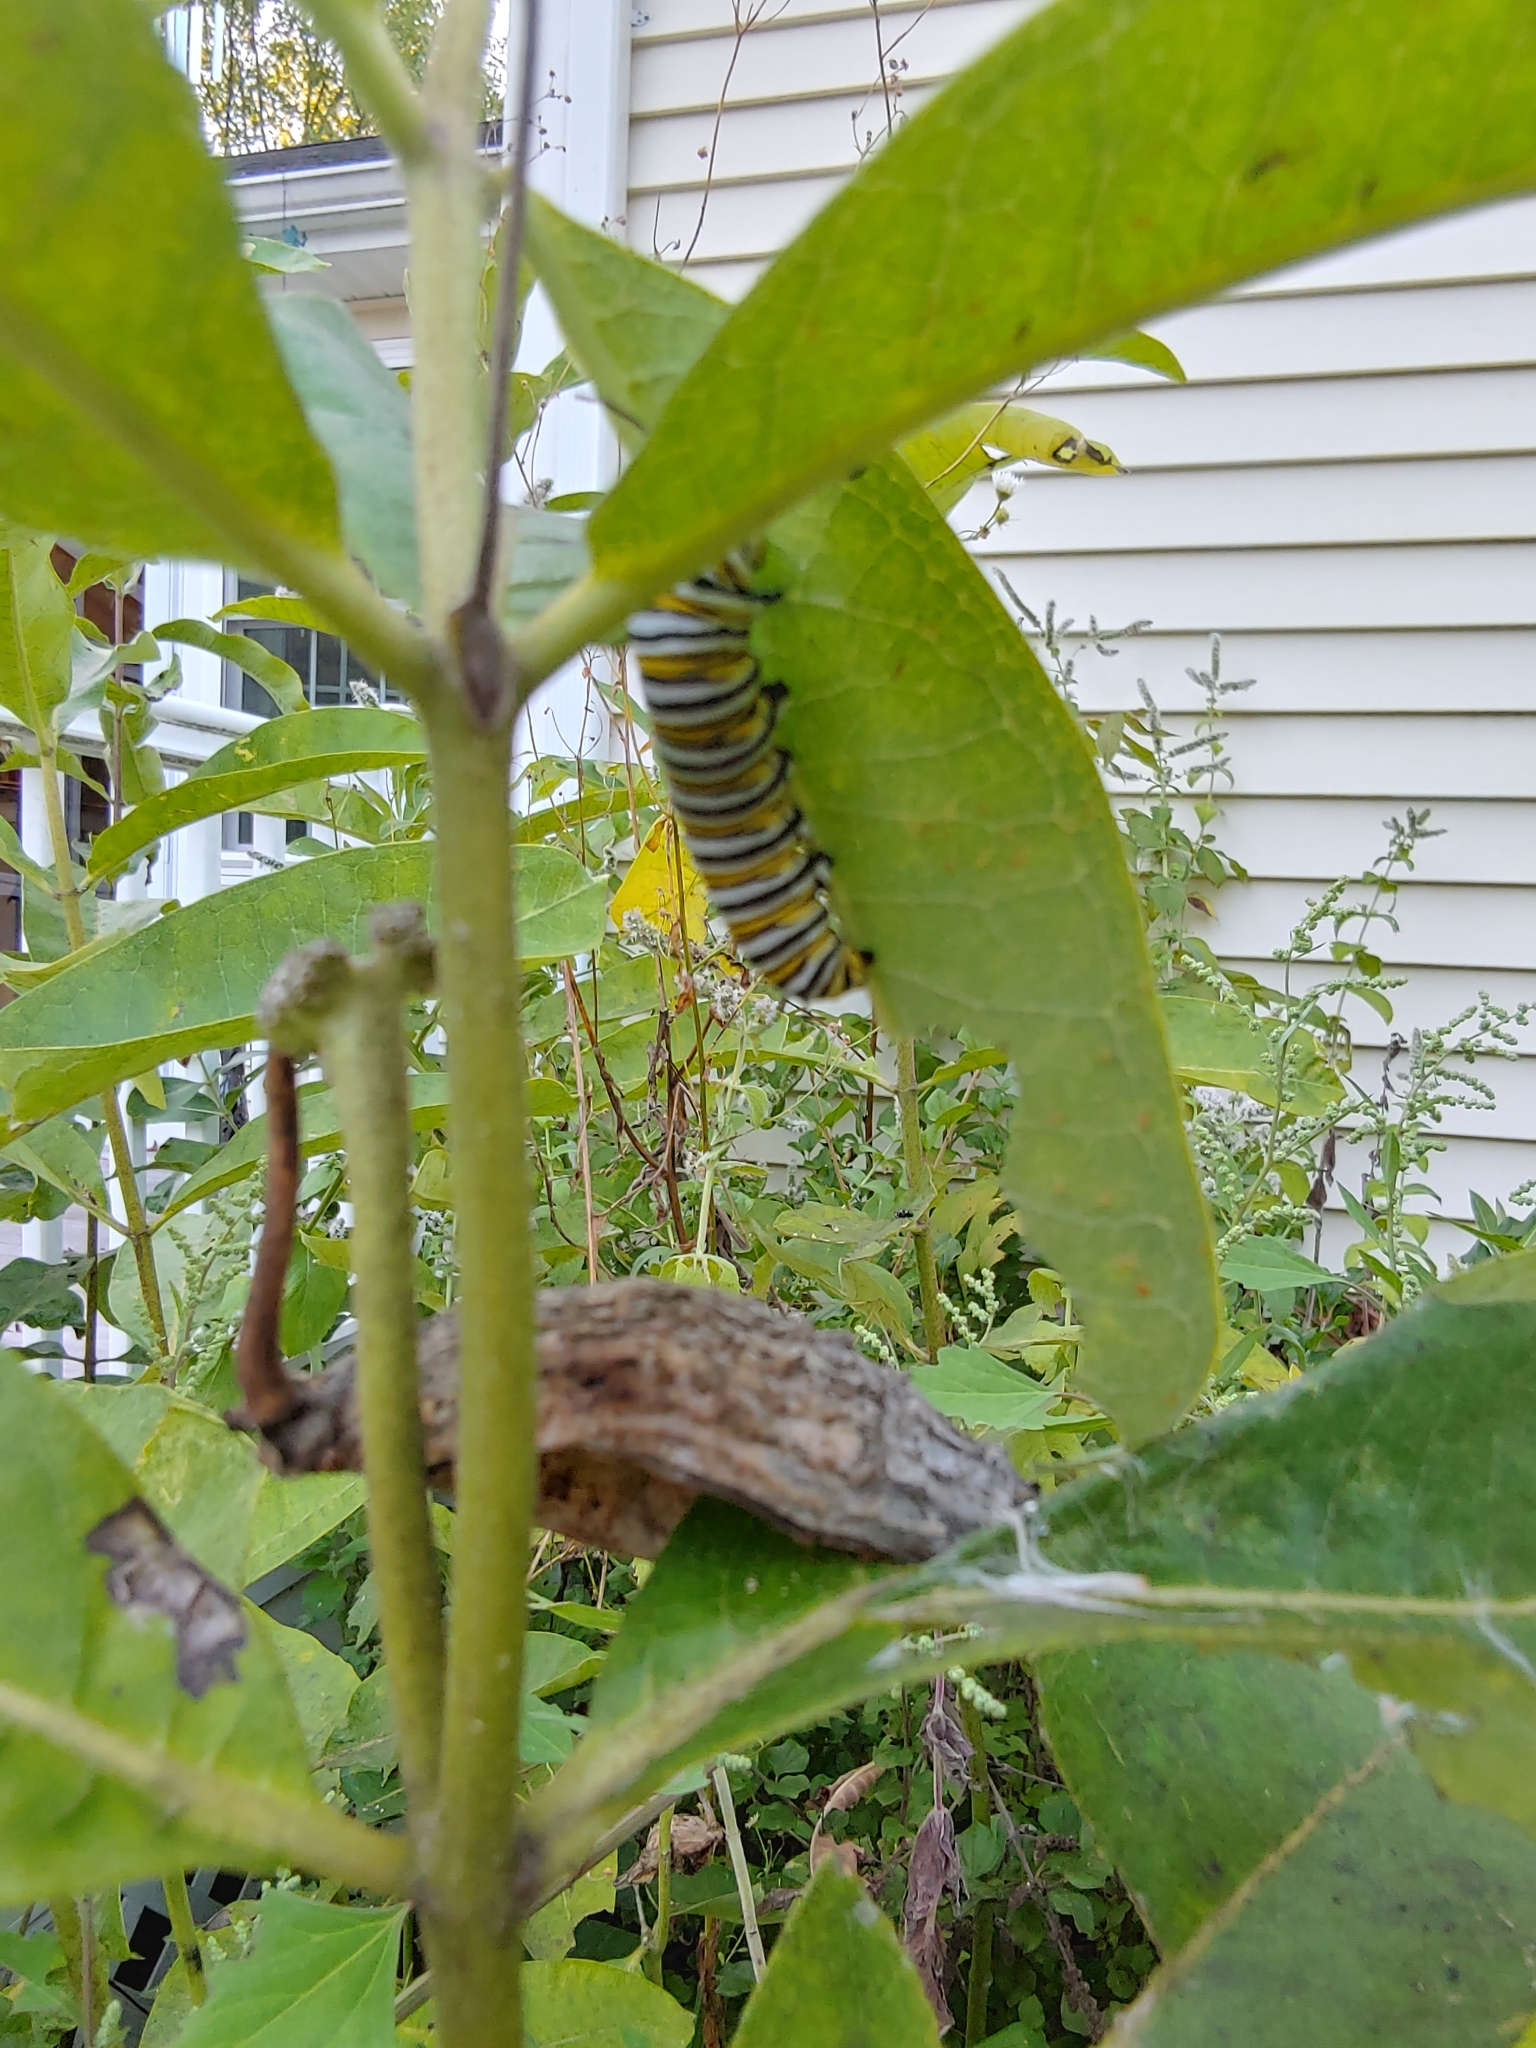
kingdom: Animalia
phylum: Arthropoda
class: Insecta
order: Lepidoptera
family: Nymphalidae
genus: Danaus
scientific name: Danaus plexippus
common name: Monarch
